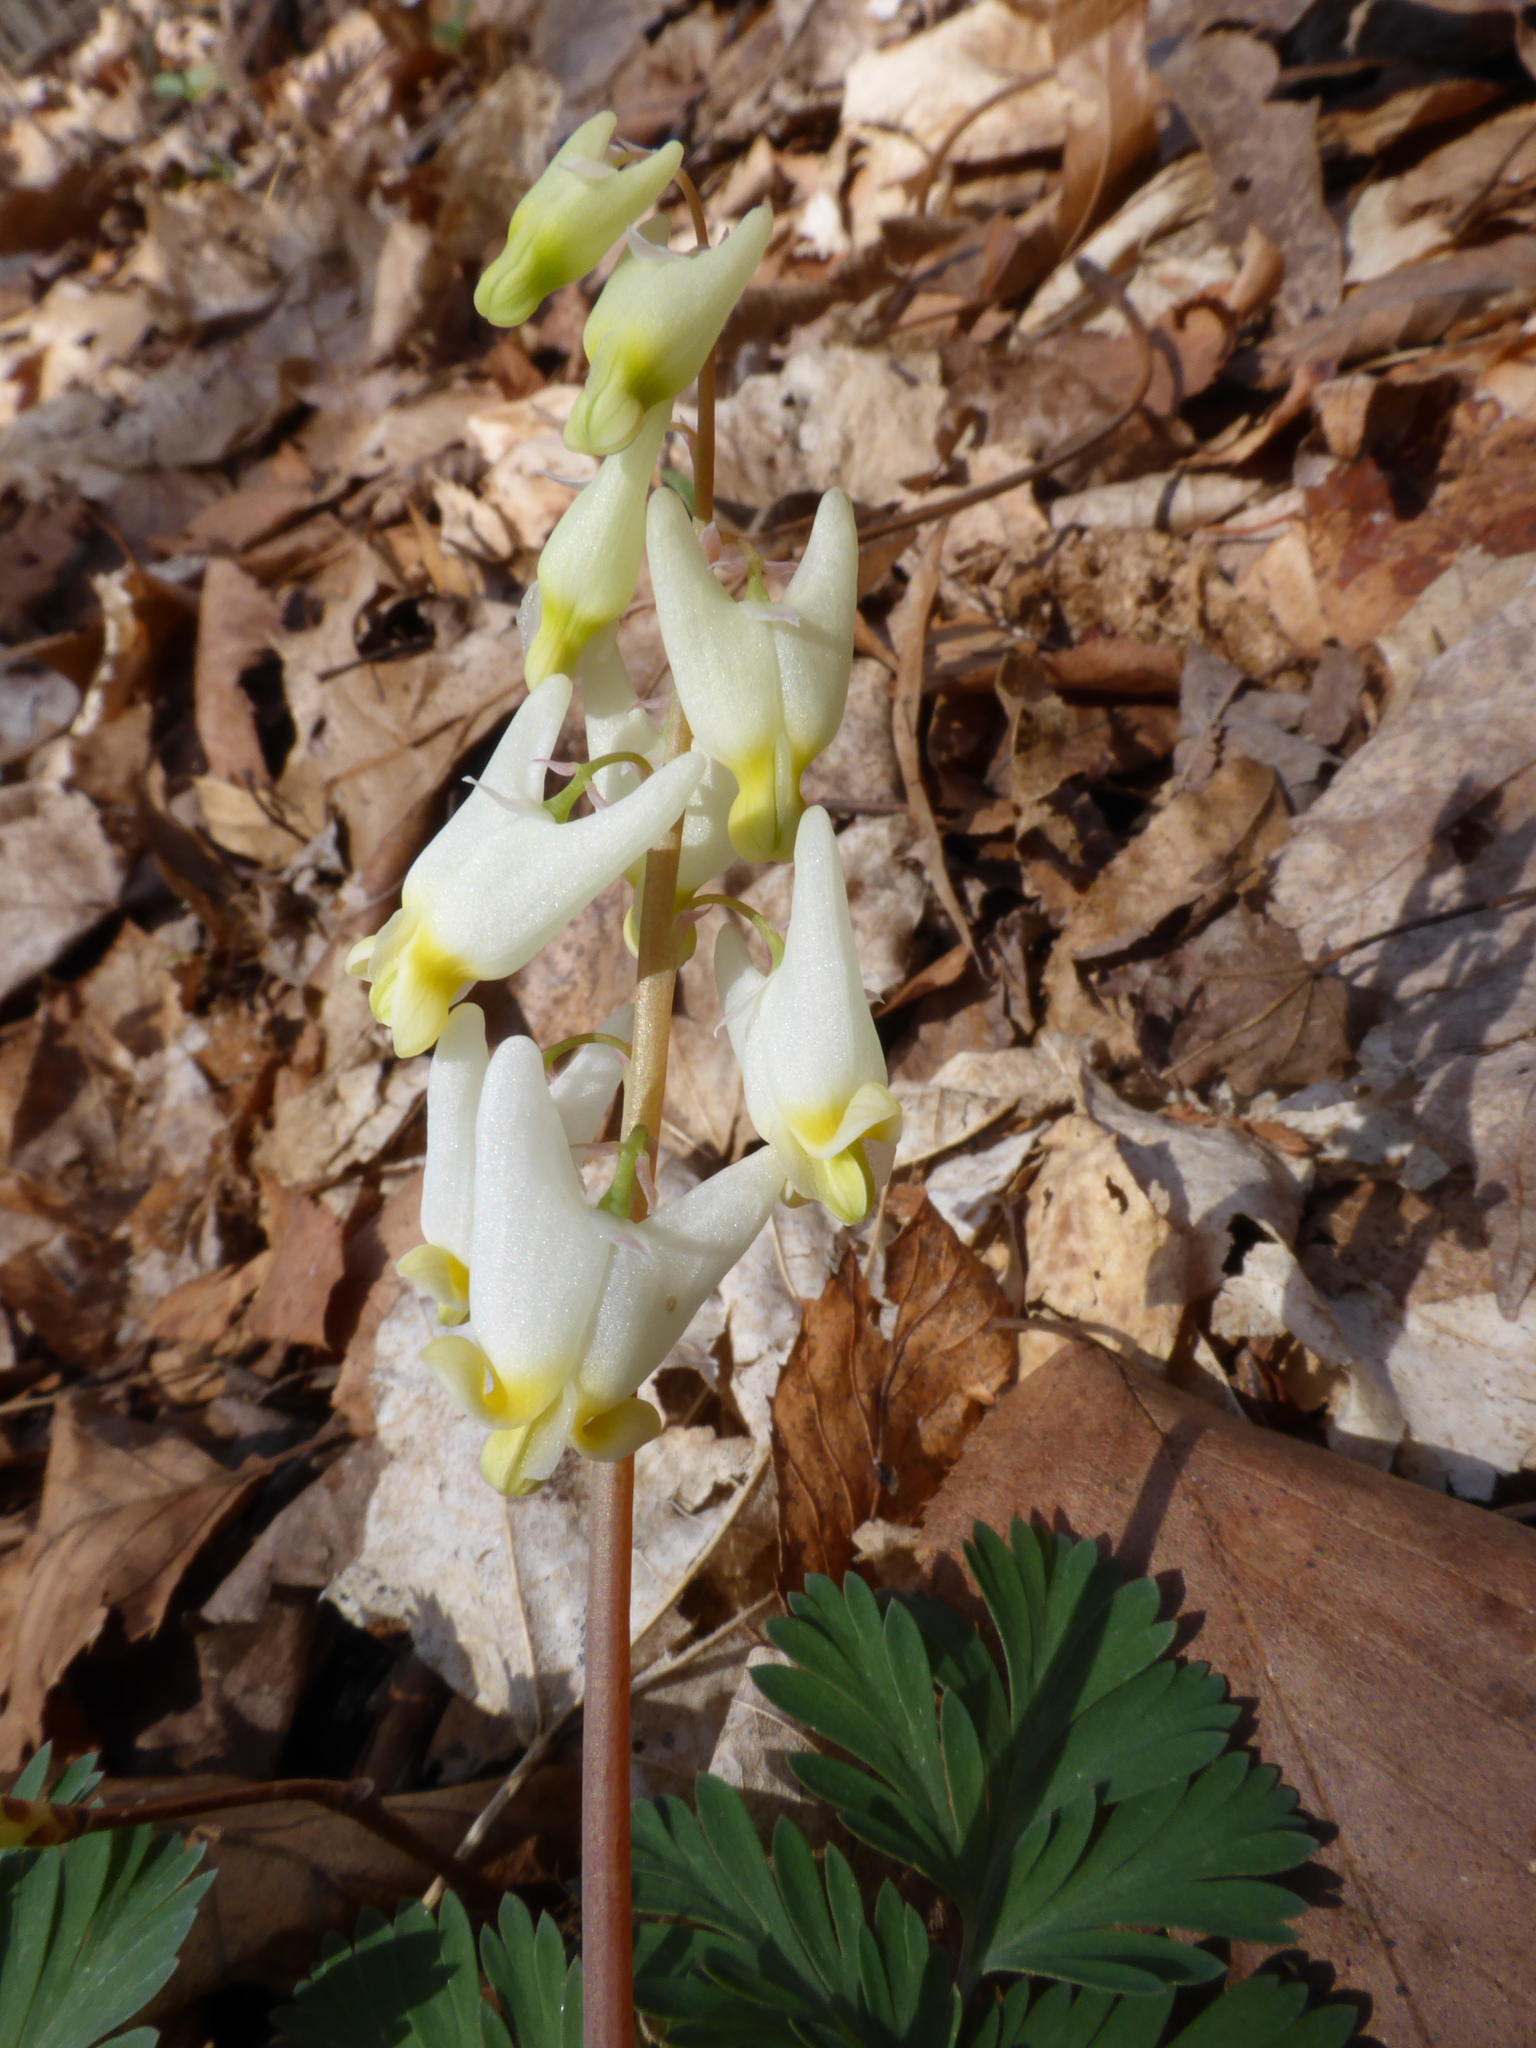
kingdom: Plantae
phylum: Tracheophyta
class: Magnoliopsida
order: Ranunculales
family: Papaveraceae
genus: Dicentra
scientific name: Dicentra cucullaria
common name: Dutchman's breeches
